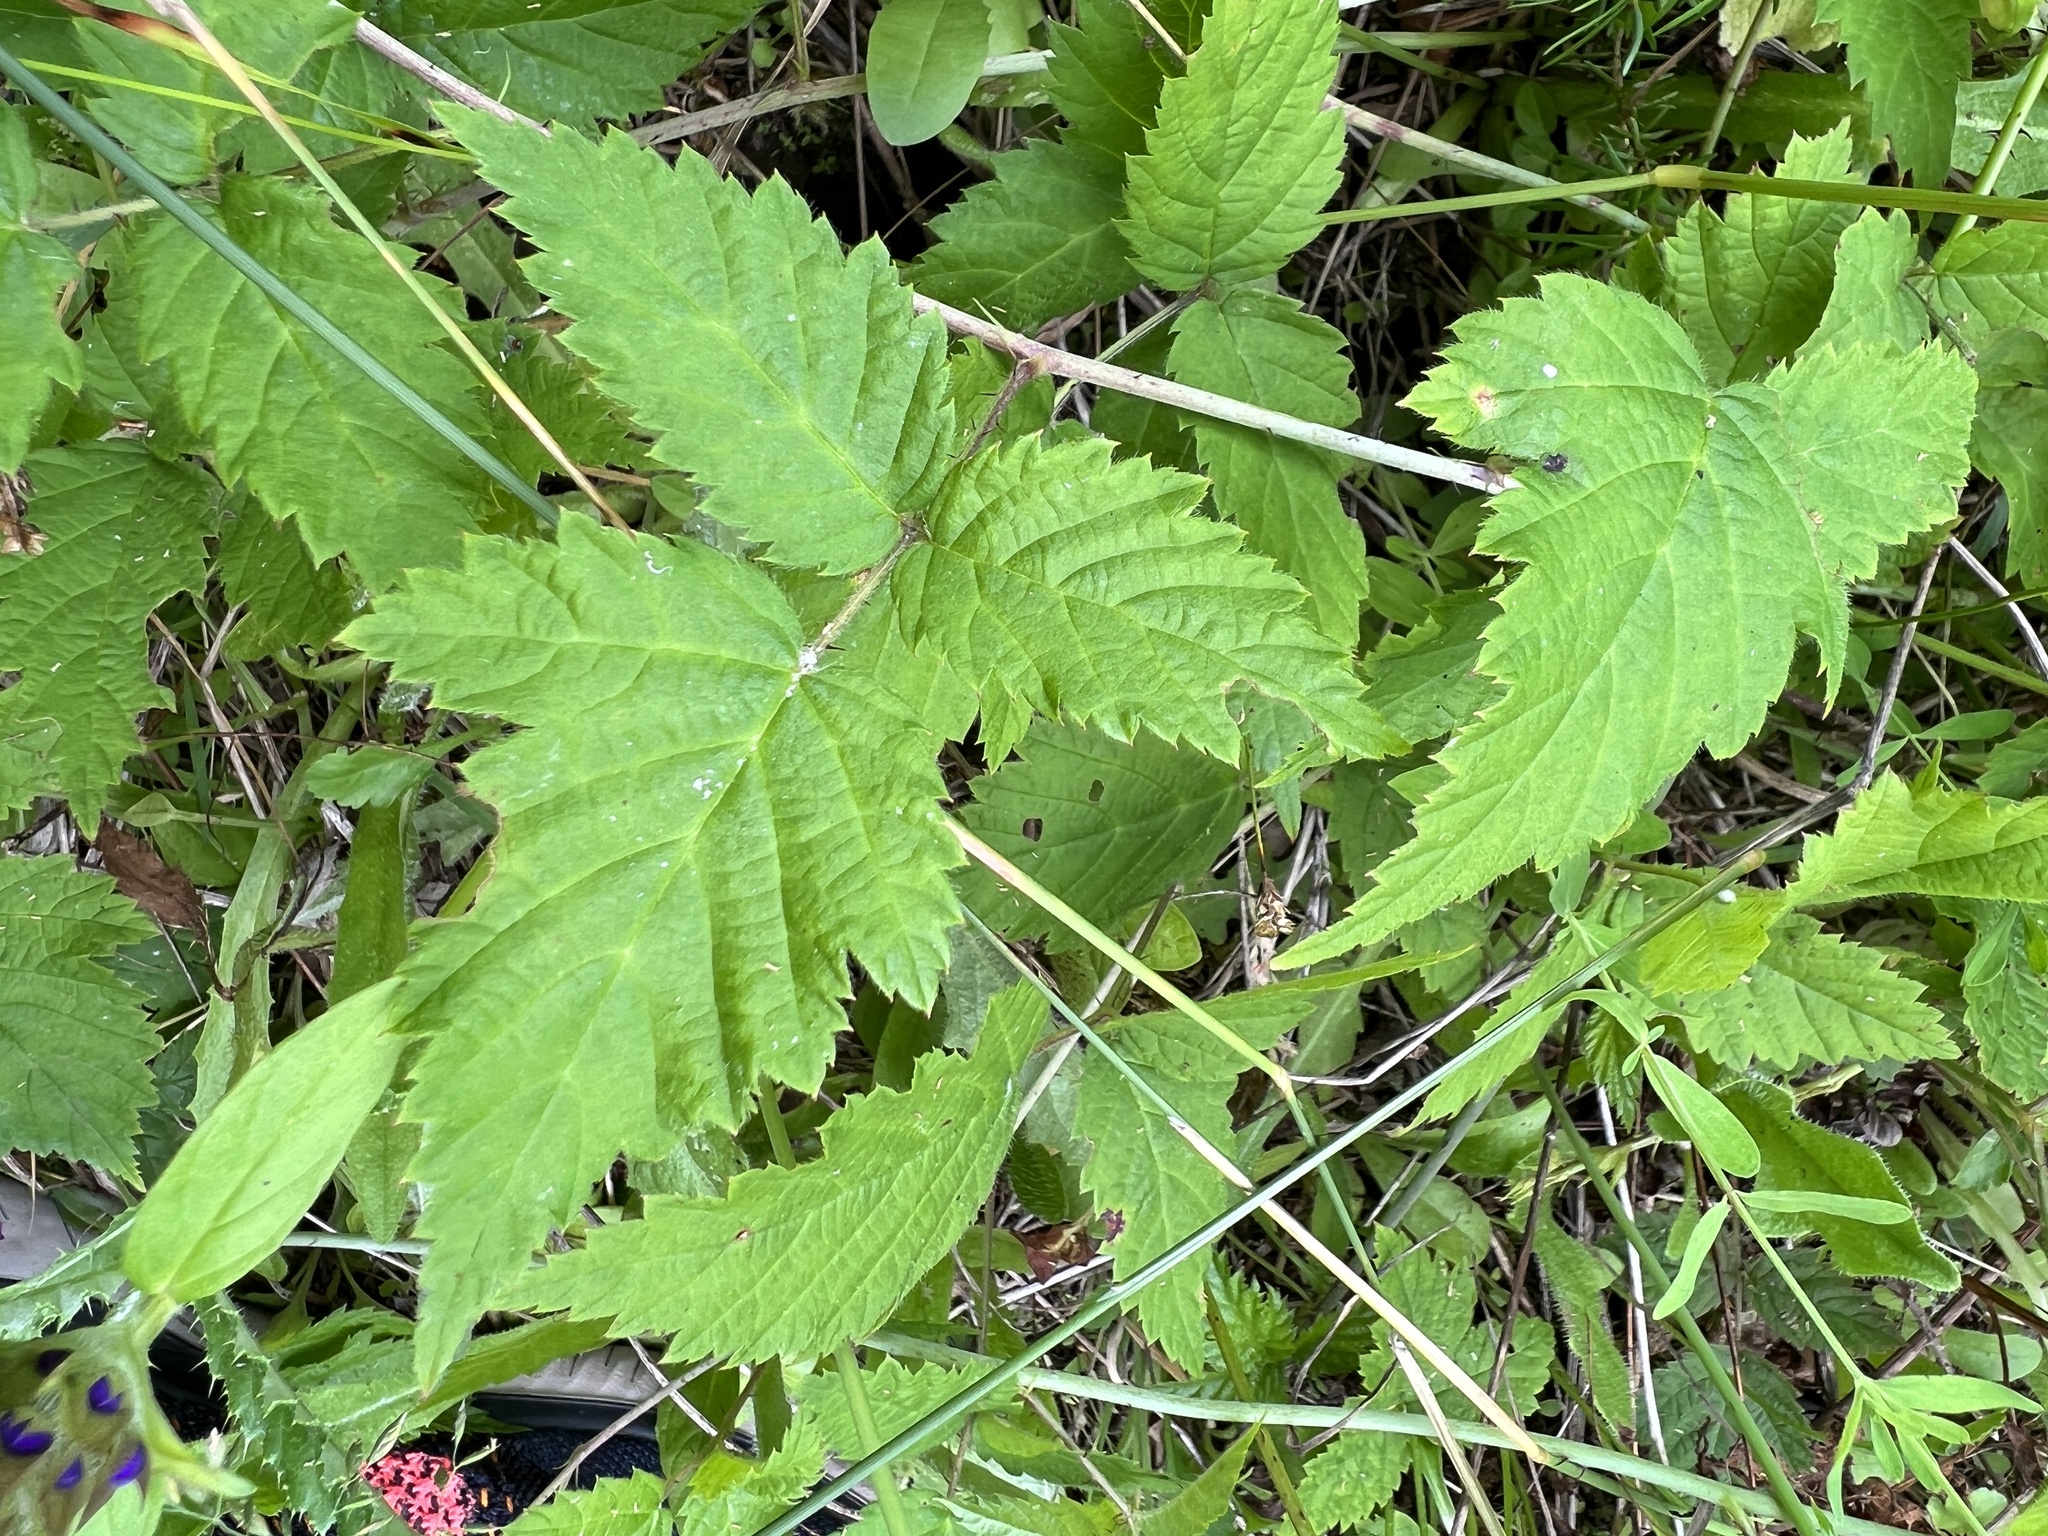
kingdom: Plantae
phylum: Tracheophyta
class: Magnoliopsida
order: Rosales
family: Rosaceae
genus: Rubus
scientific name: Rubus ursinus
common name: Pacific blackberry
